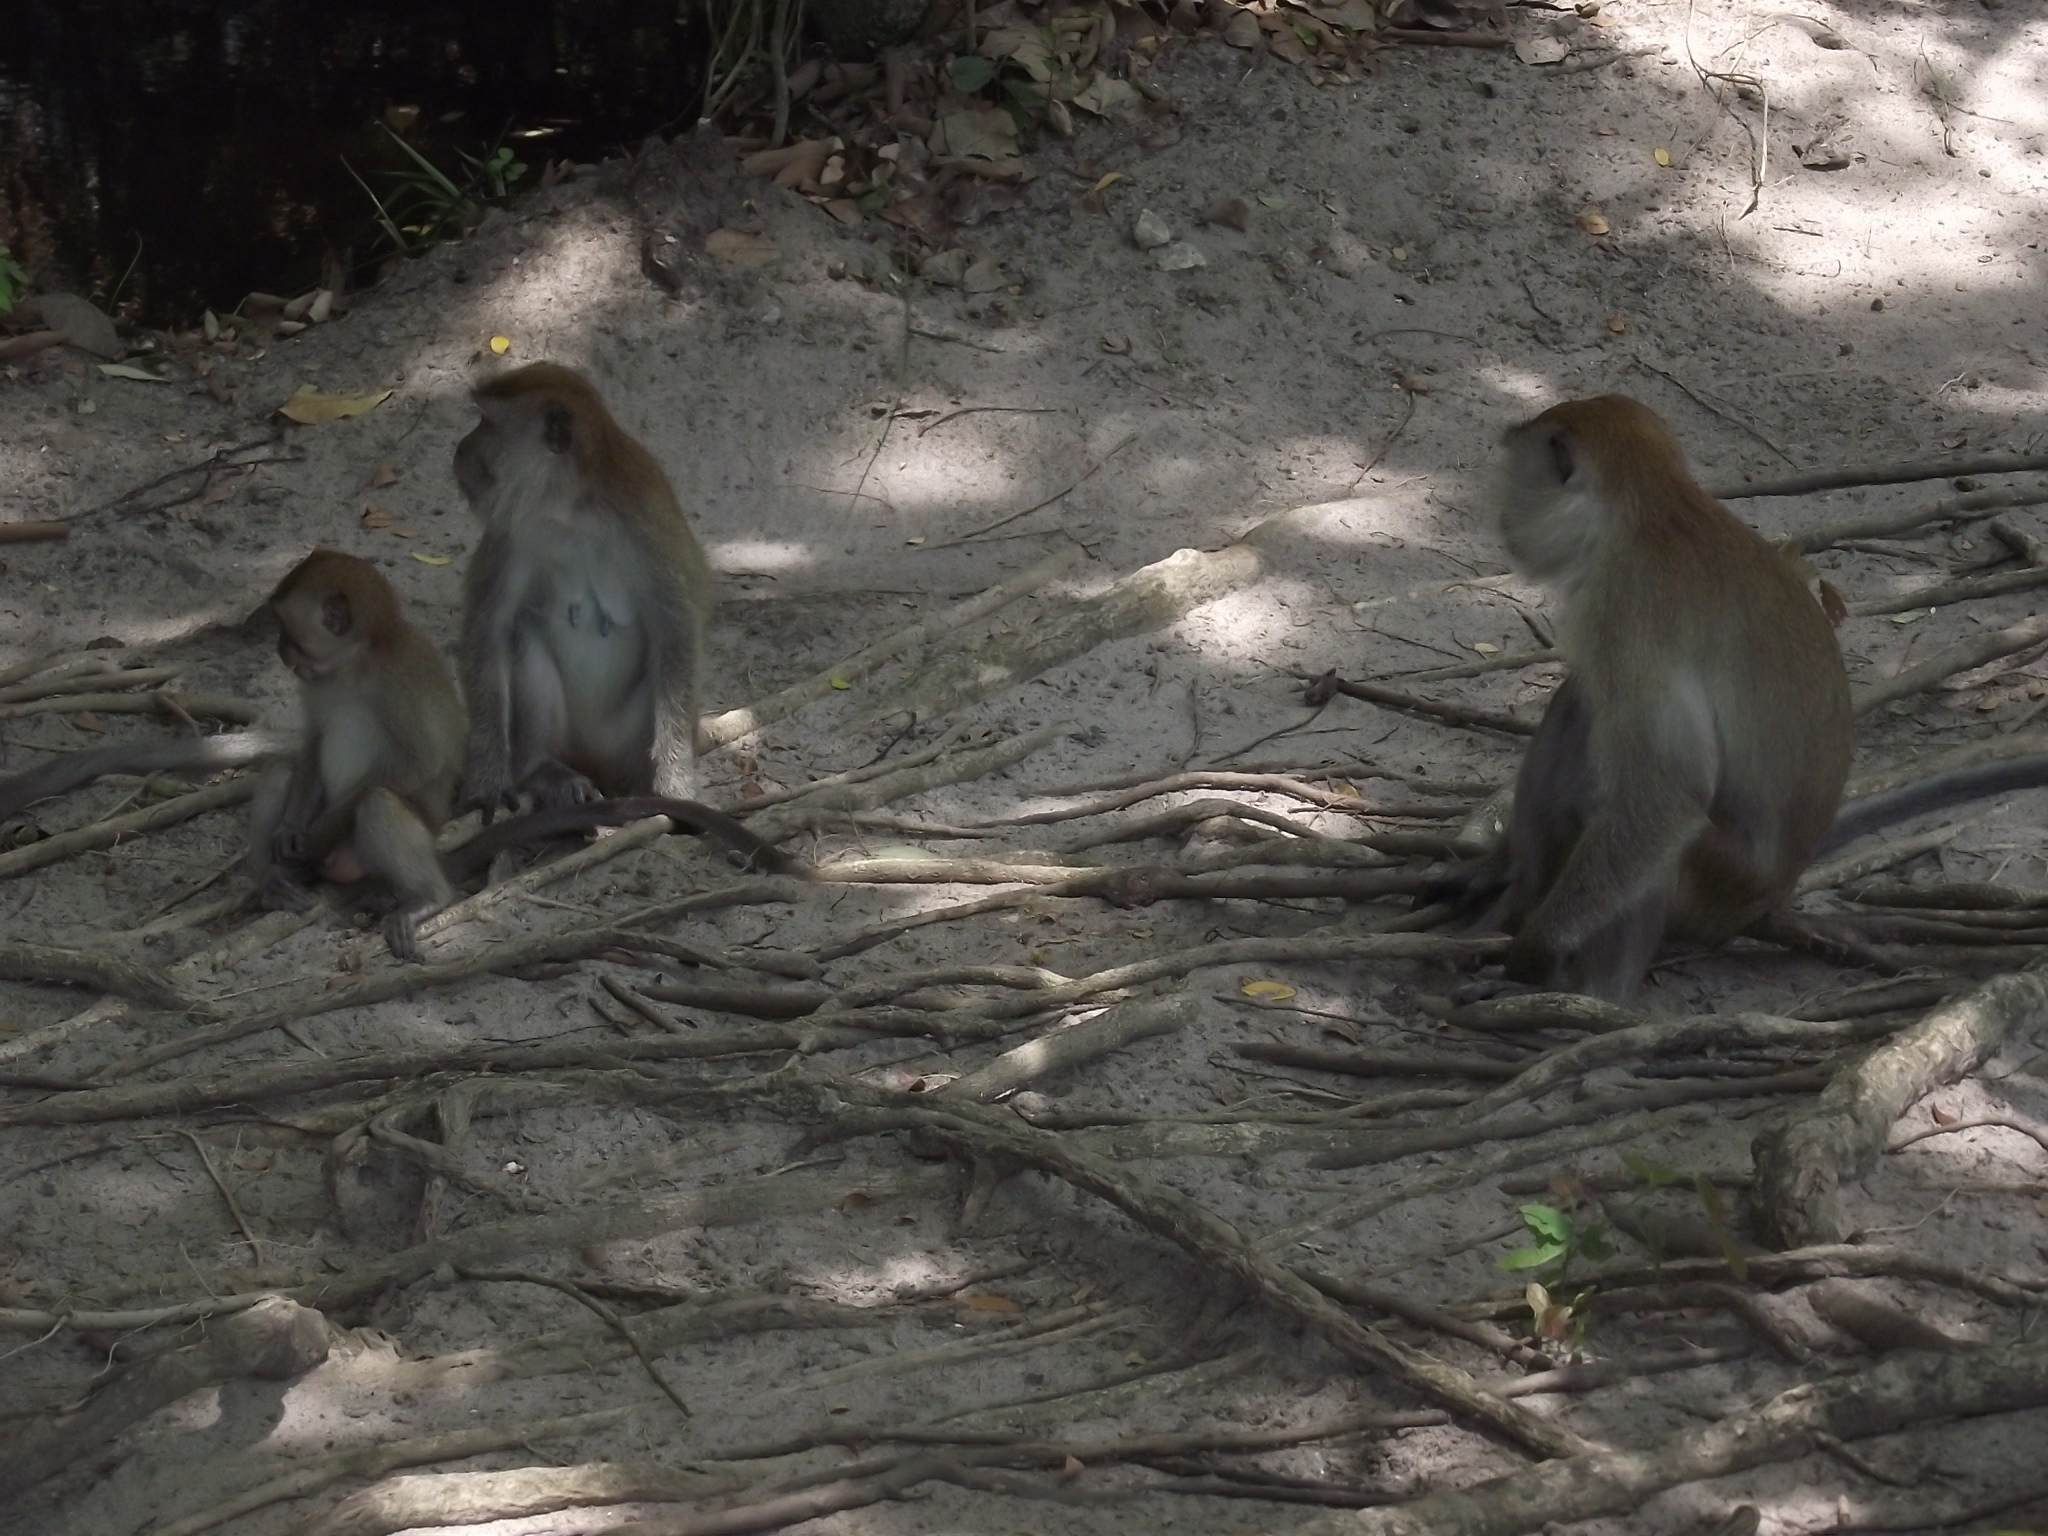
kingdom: Animalia
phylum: Chordata
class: Mammalia
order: Primates
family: Cercopithecidae
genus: Macaca
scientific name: Macaca fascicularis
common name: Crab-eating macaque
